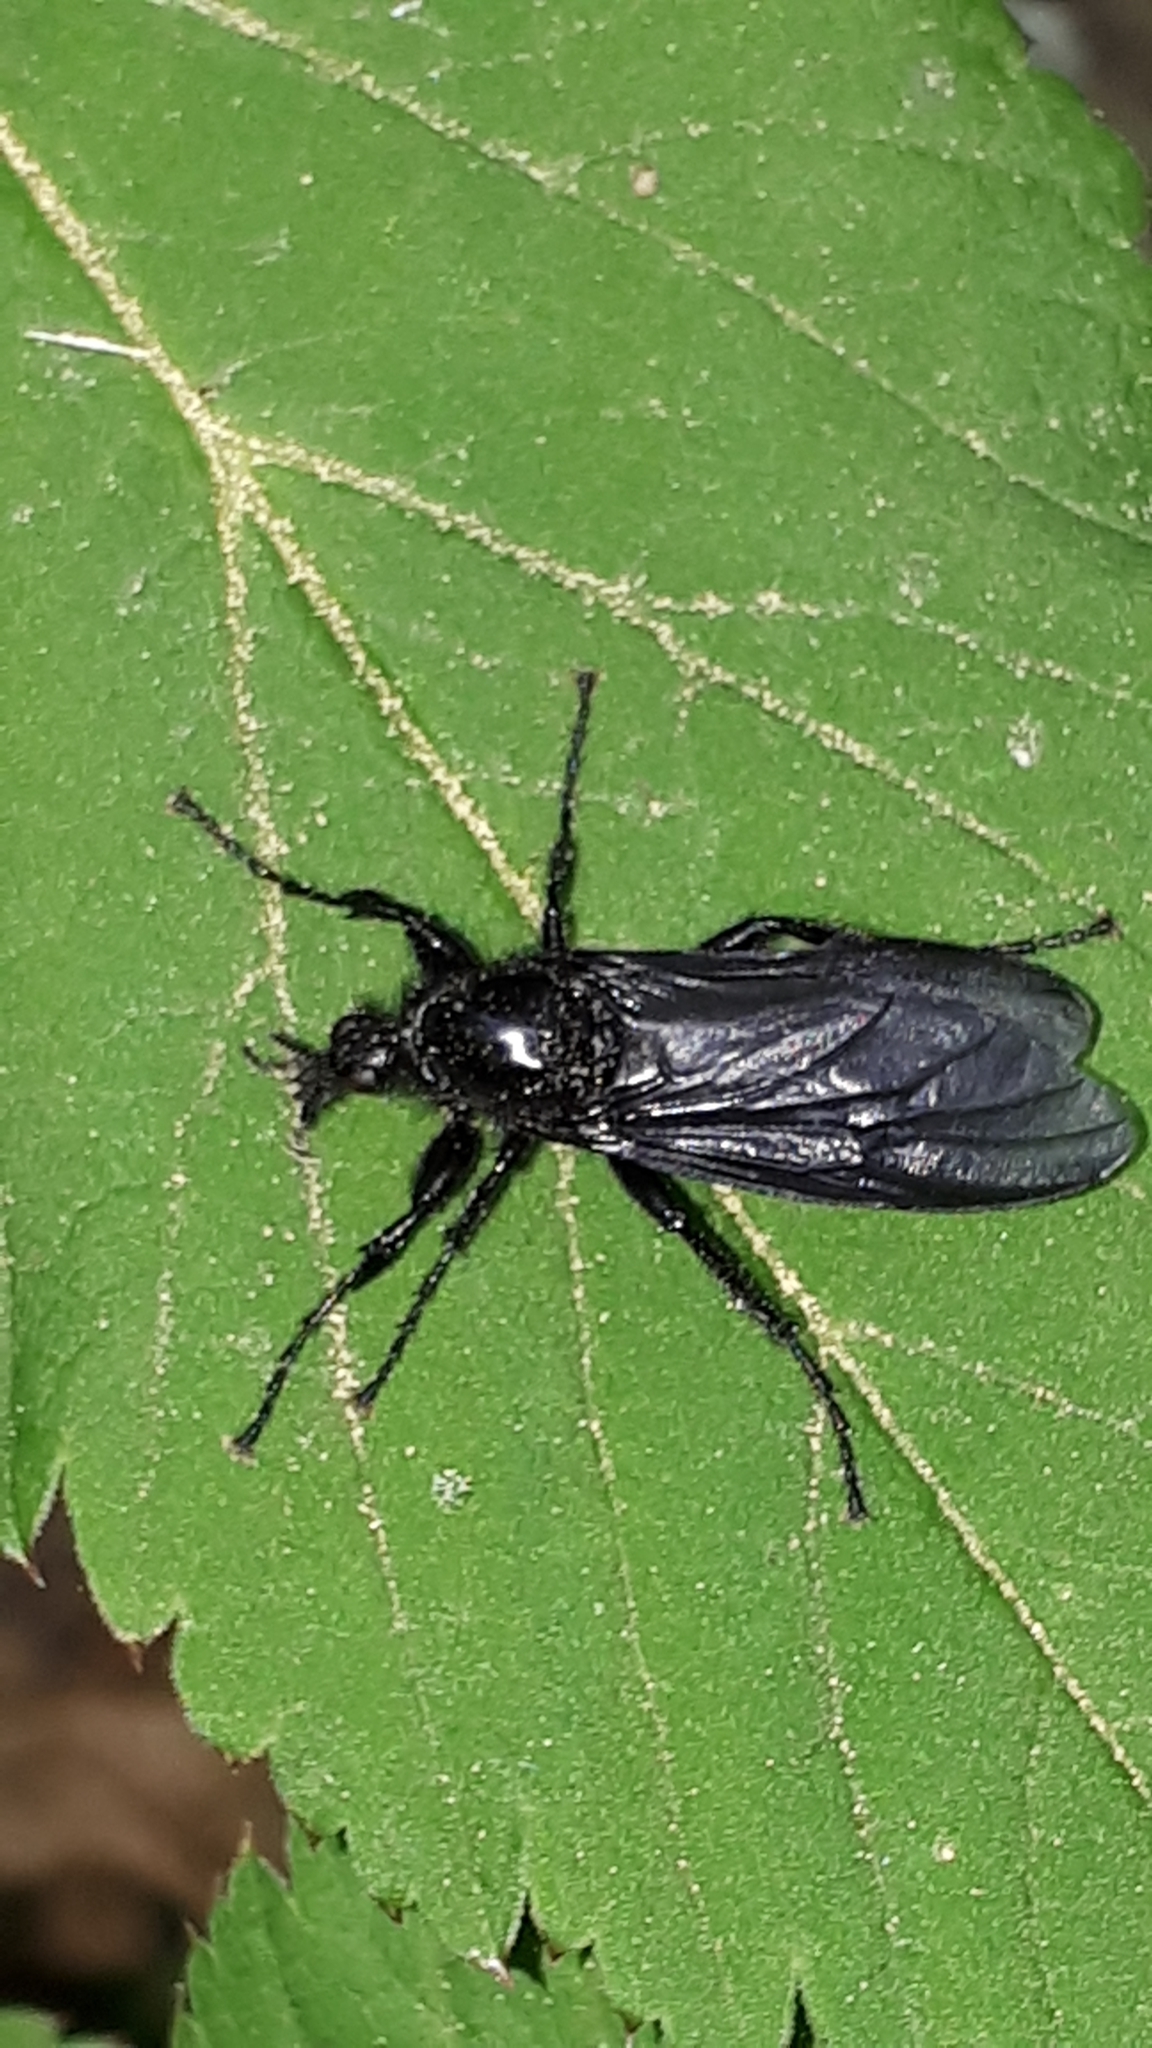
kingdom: Animalia
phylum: Arthropoda
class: Insecta
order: Diptera
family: Bibionidae
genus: Bibio
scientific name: Bibio marci
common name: St marks fly
